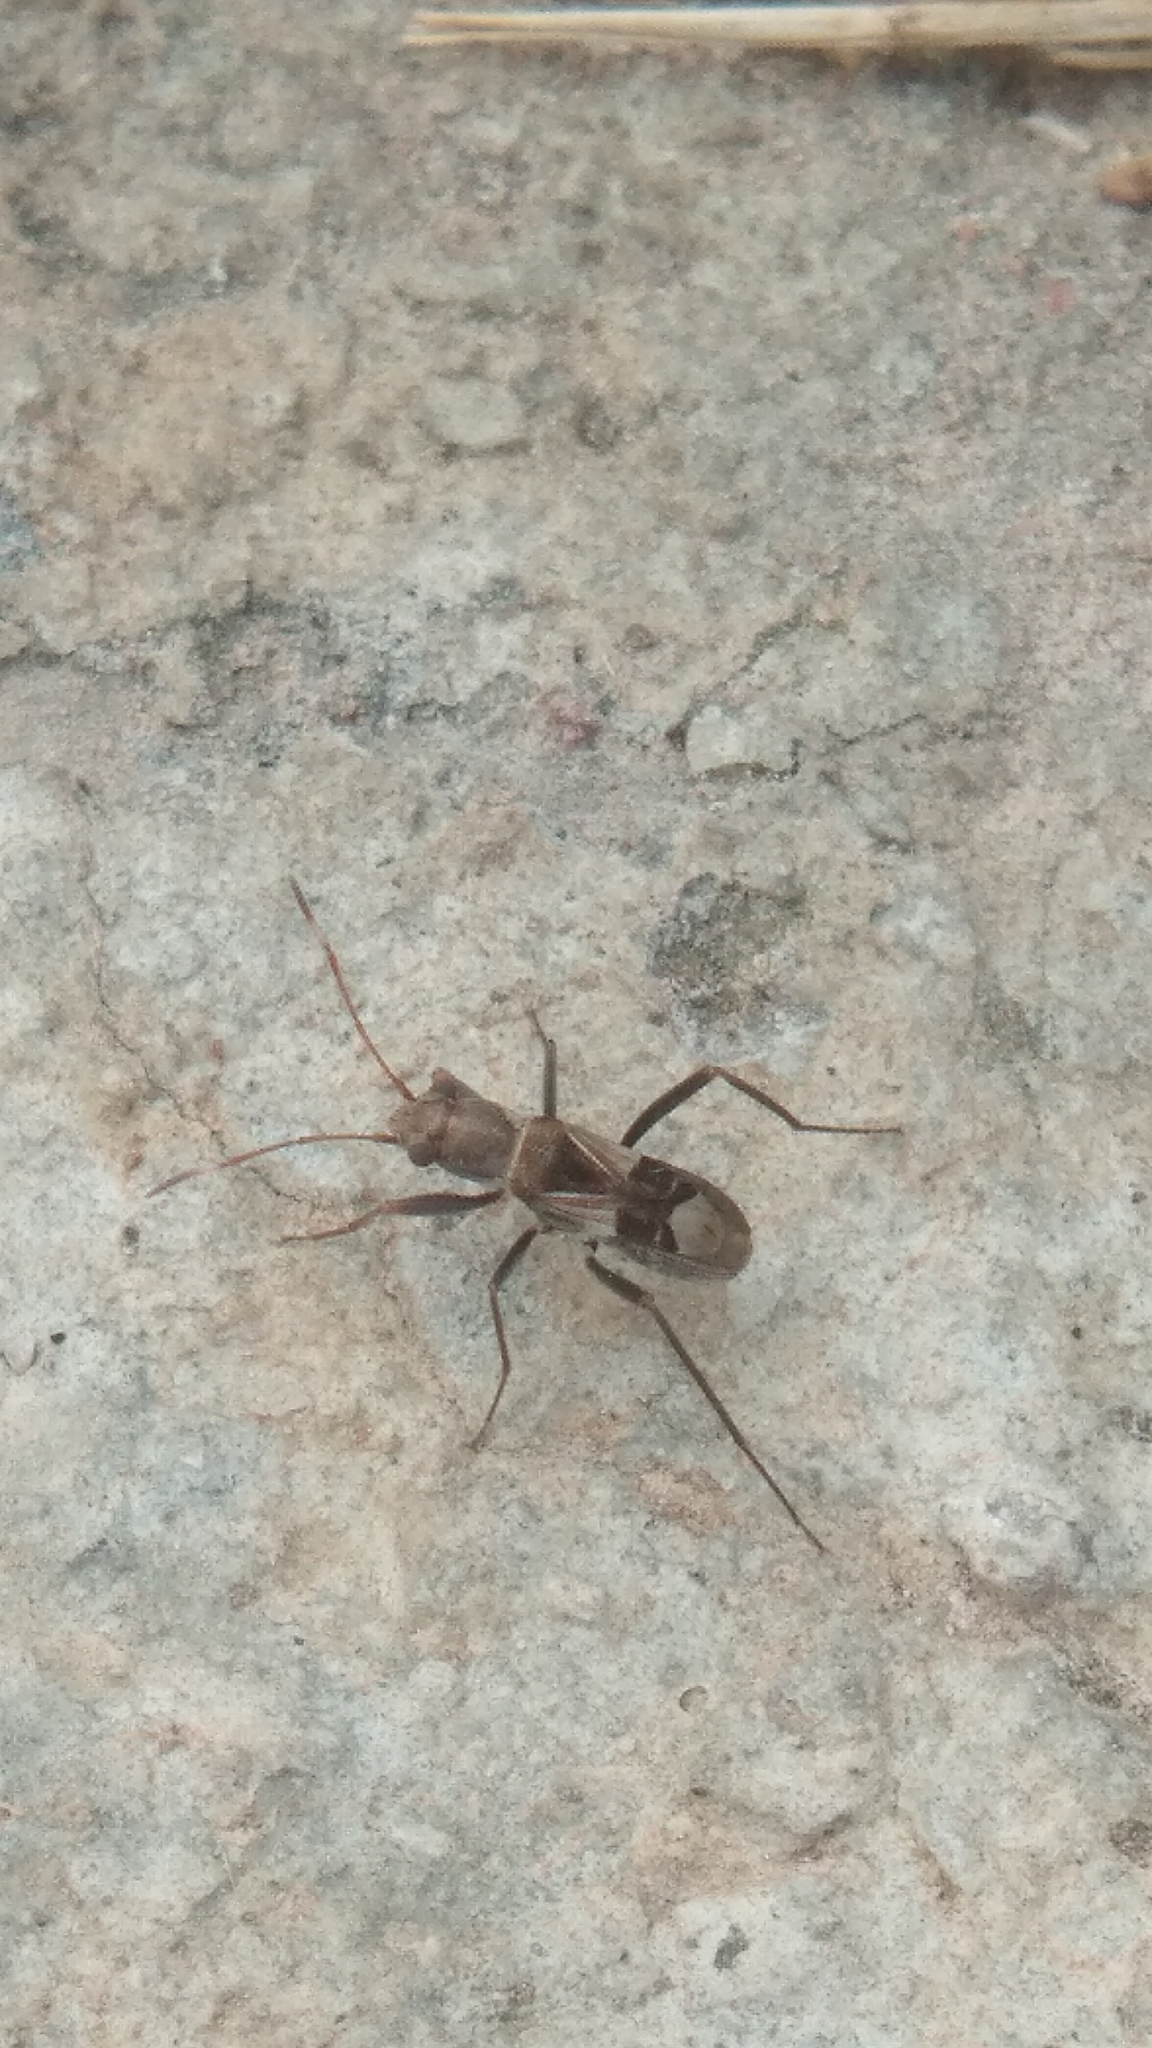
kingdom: Animalia
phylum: Arthropoda
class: Insecta
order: Hemiptera
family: Rhyparochromidae
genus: Poeantius
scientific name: Poeantius festivus
